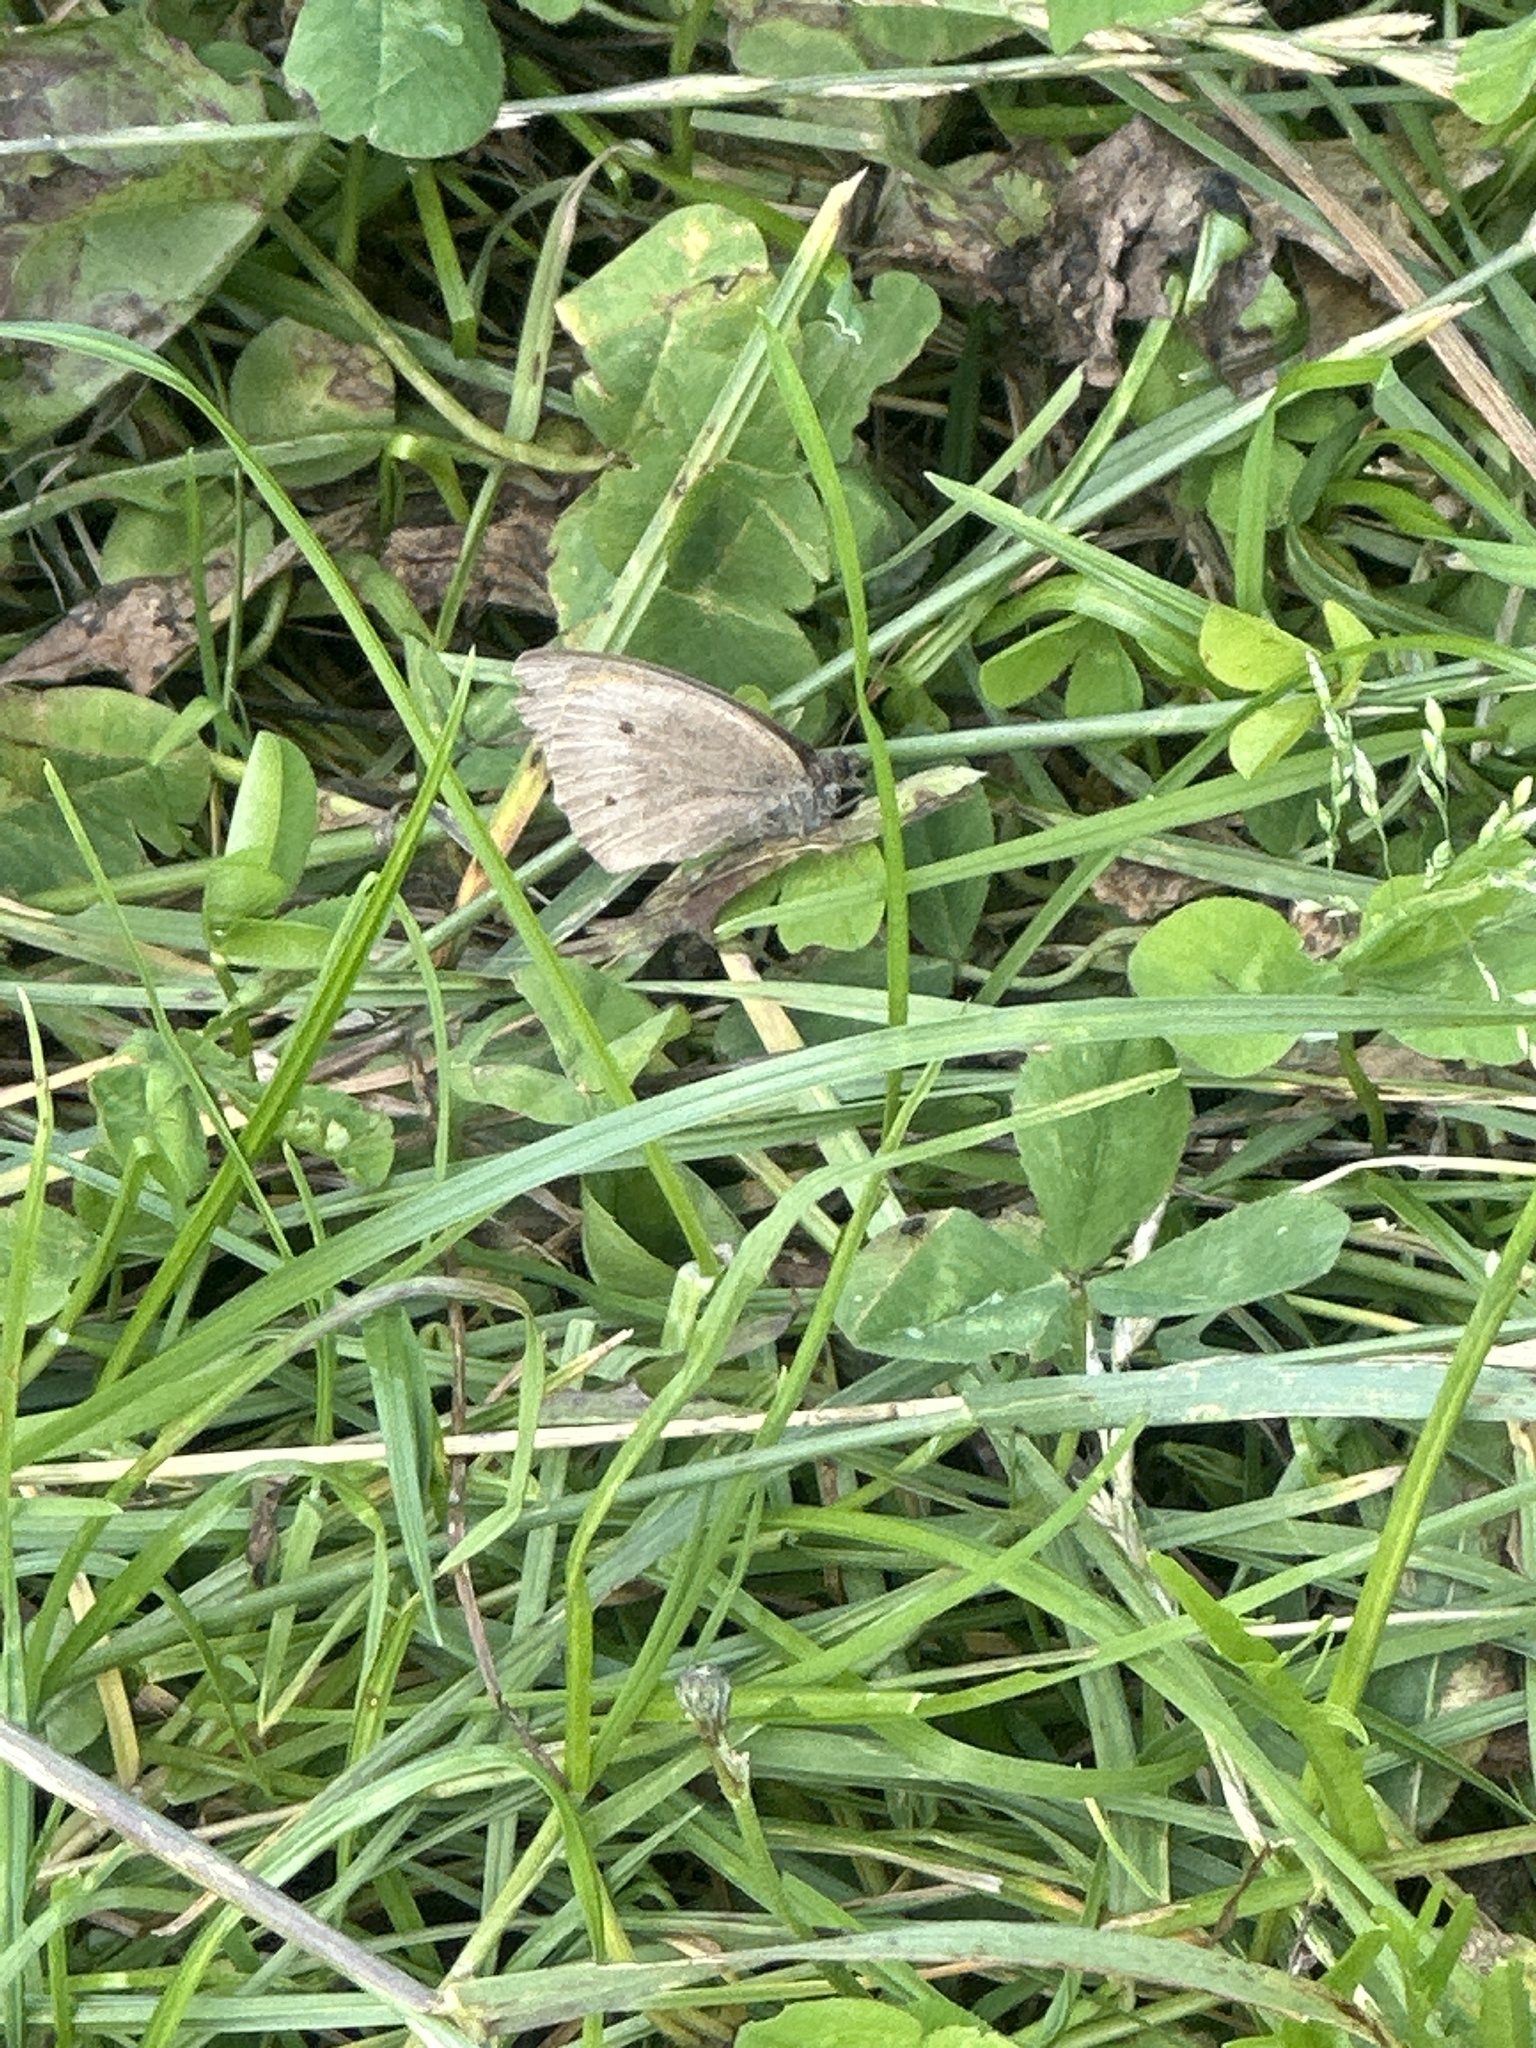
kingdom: Animalia
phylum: Arthropoda
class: Insecta
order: Lepidoptera
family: Nymphalidae
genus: Maniola
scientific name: Maniola jurtina
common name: Meadow brown
